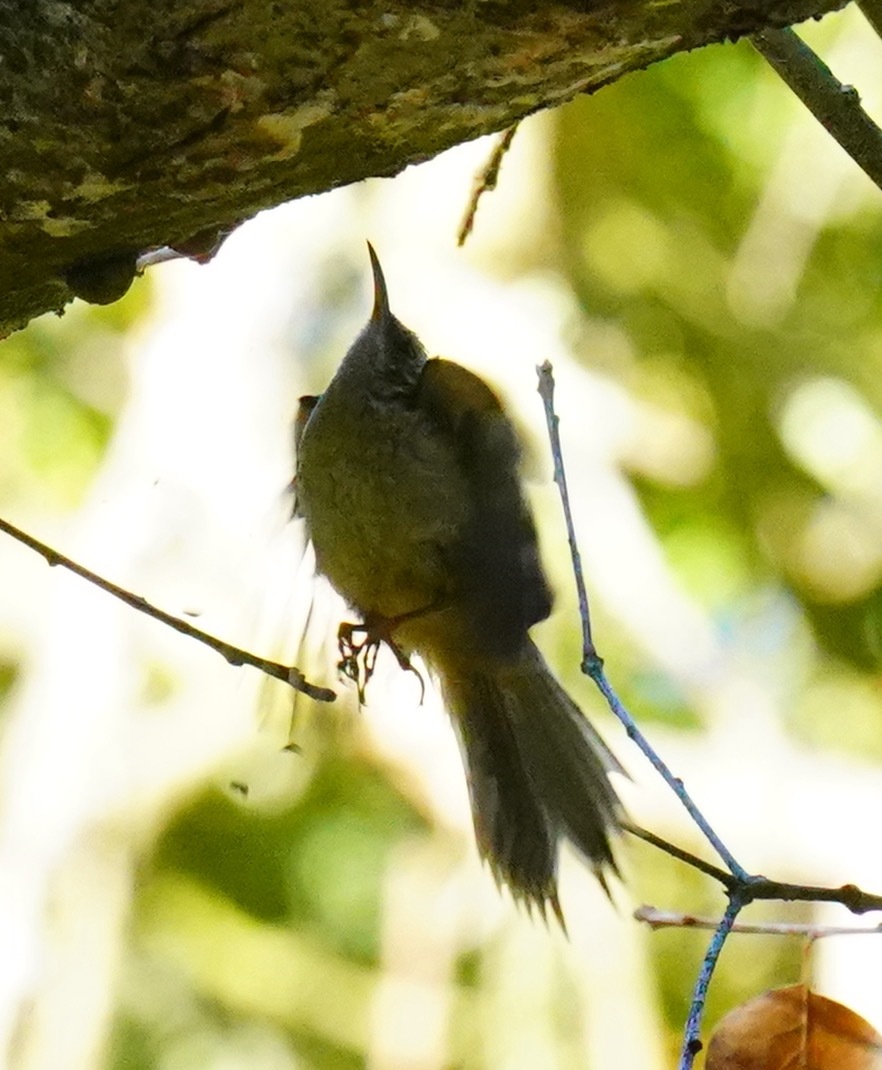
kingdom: Animalia
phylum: Chordata
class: Aves
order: Passeriformes
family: Certhiidae
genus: Certhia
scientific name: Certhia americana
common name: Brown creeper
